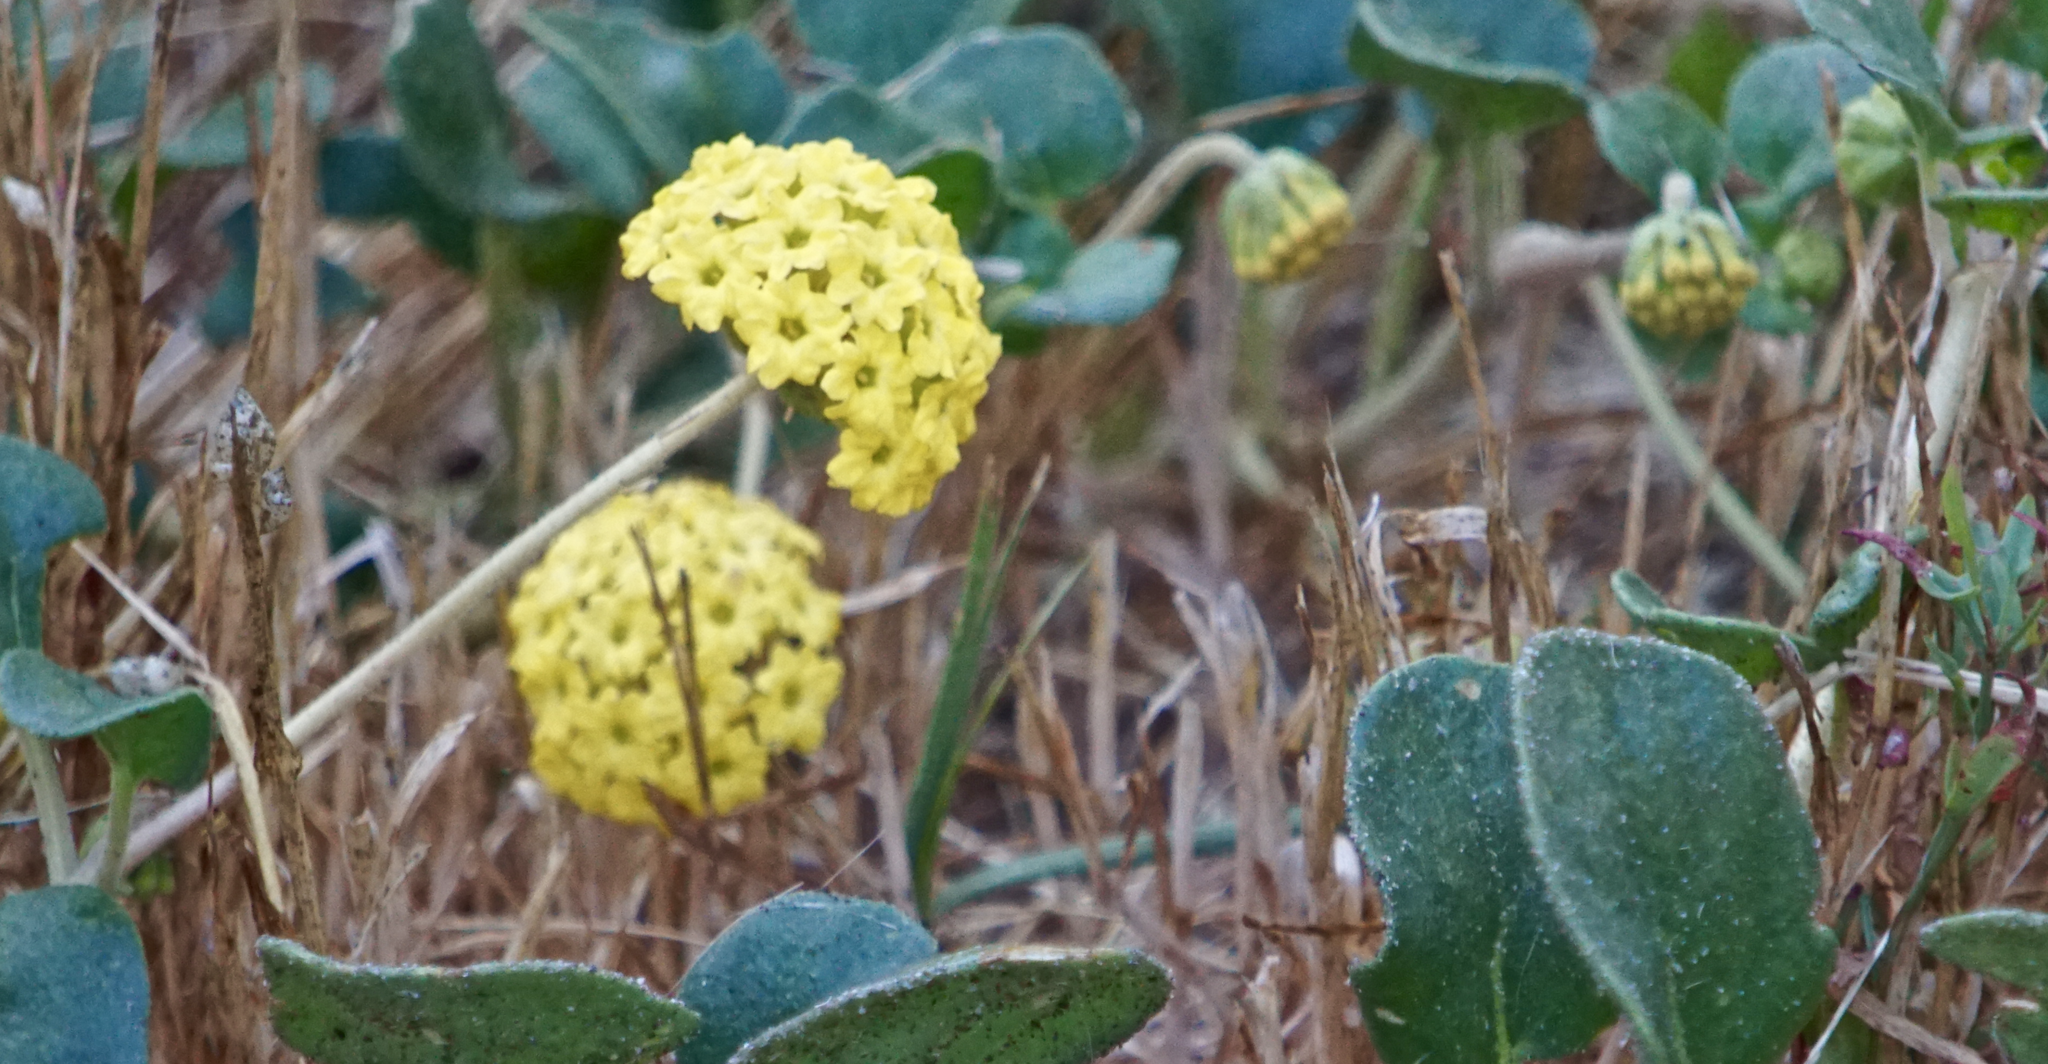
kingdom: Plantae
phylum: Tracheophyta
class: Magnoliopsida
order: Caryophyllales
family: Nyctaginaceae
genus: Abronia
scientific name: Abronia latifolia
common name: Yellow sand-verbena
